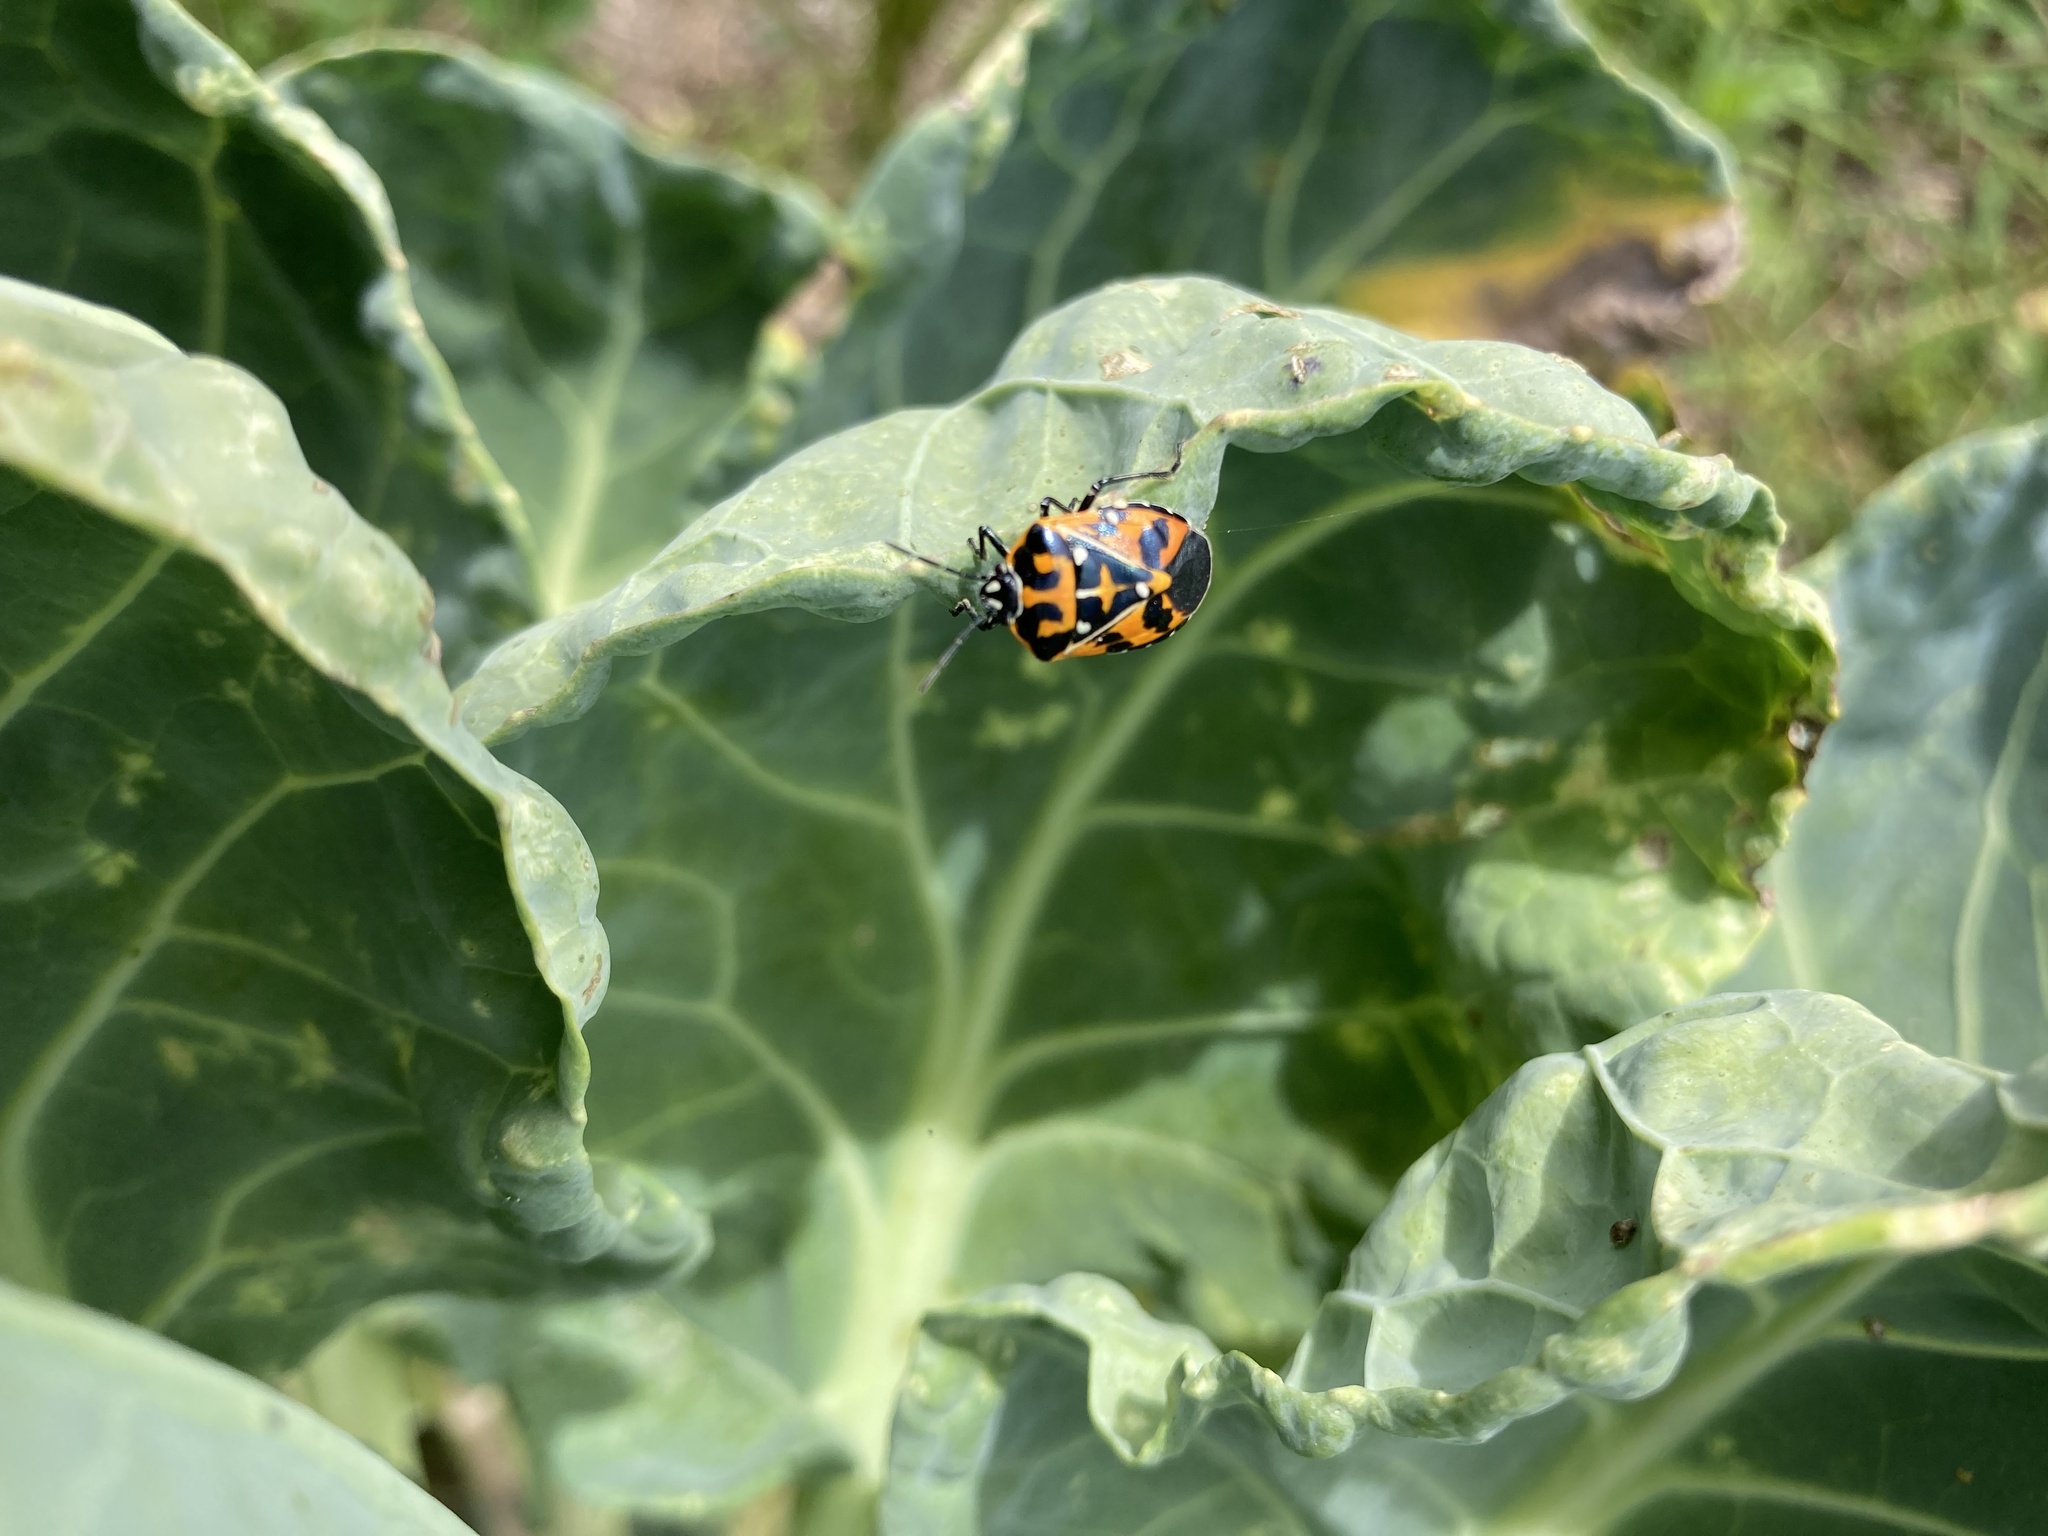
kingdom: Animalia
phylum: Arthropoda
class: Insecta
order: Hemiptera
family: Pentatomidae
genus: Murgantia
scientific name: Murgantia histrionica
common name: Harlequin bug
